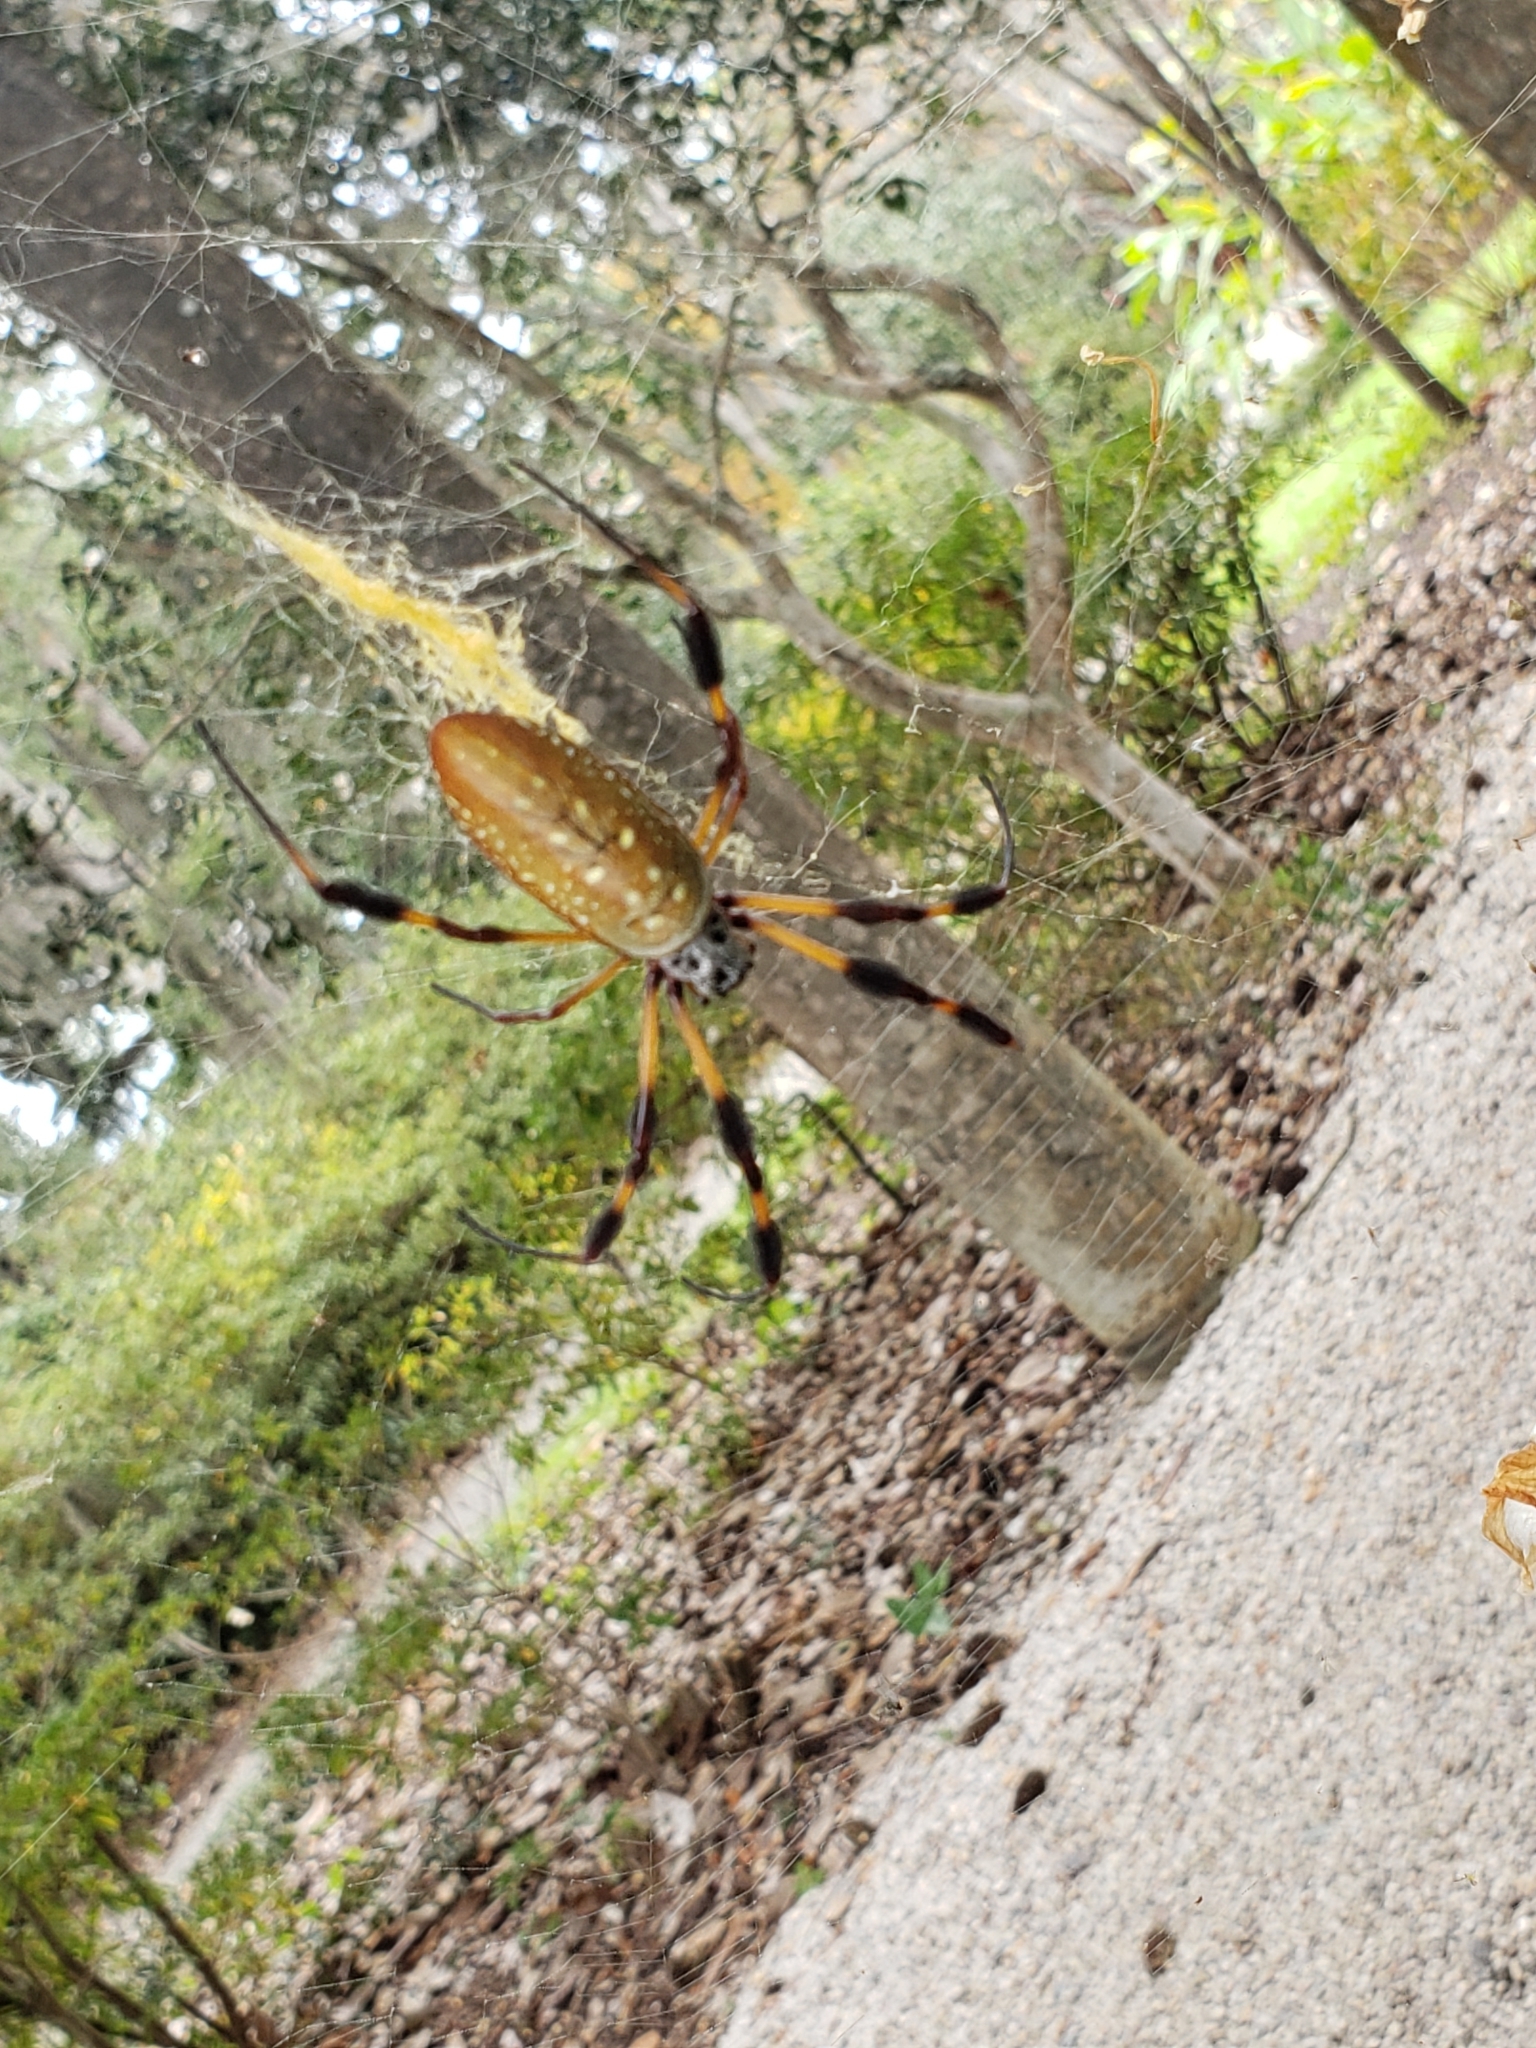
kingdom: Animalia
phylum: Arthropoda
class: Arachnida
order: Araneae
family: Araneidae
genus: Trichonephila
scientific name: Trichonephila clavipes
